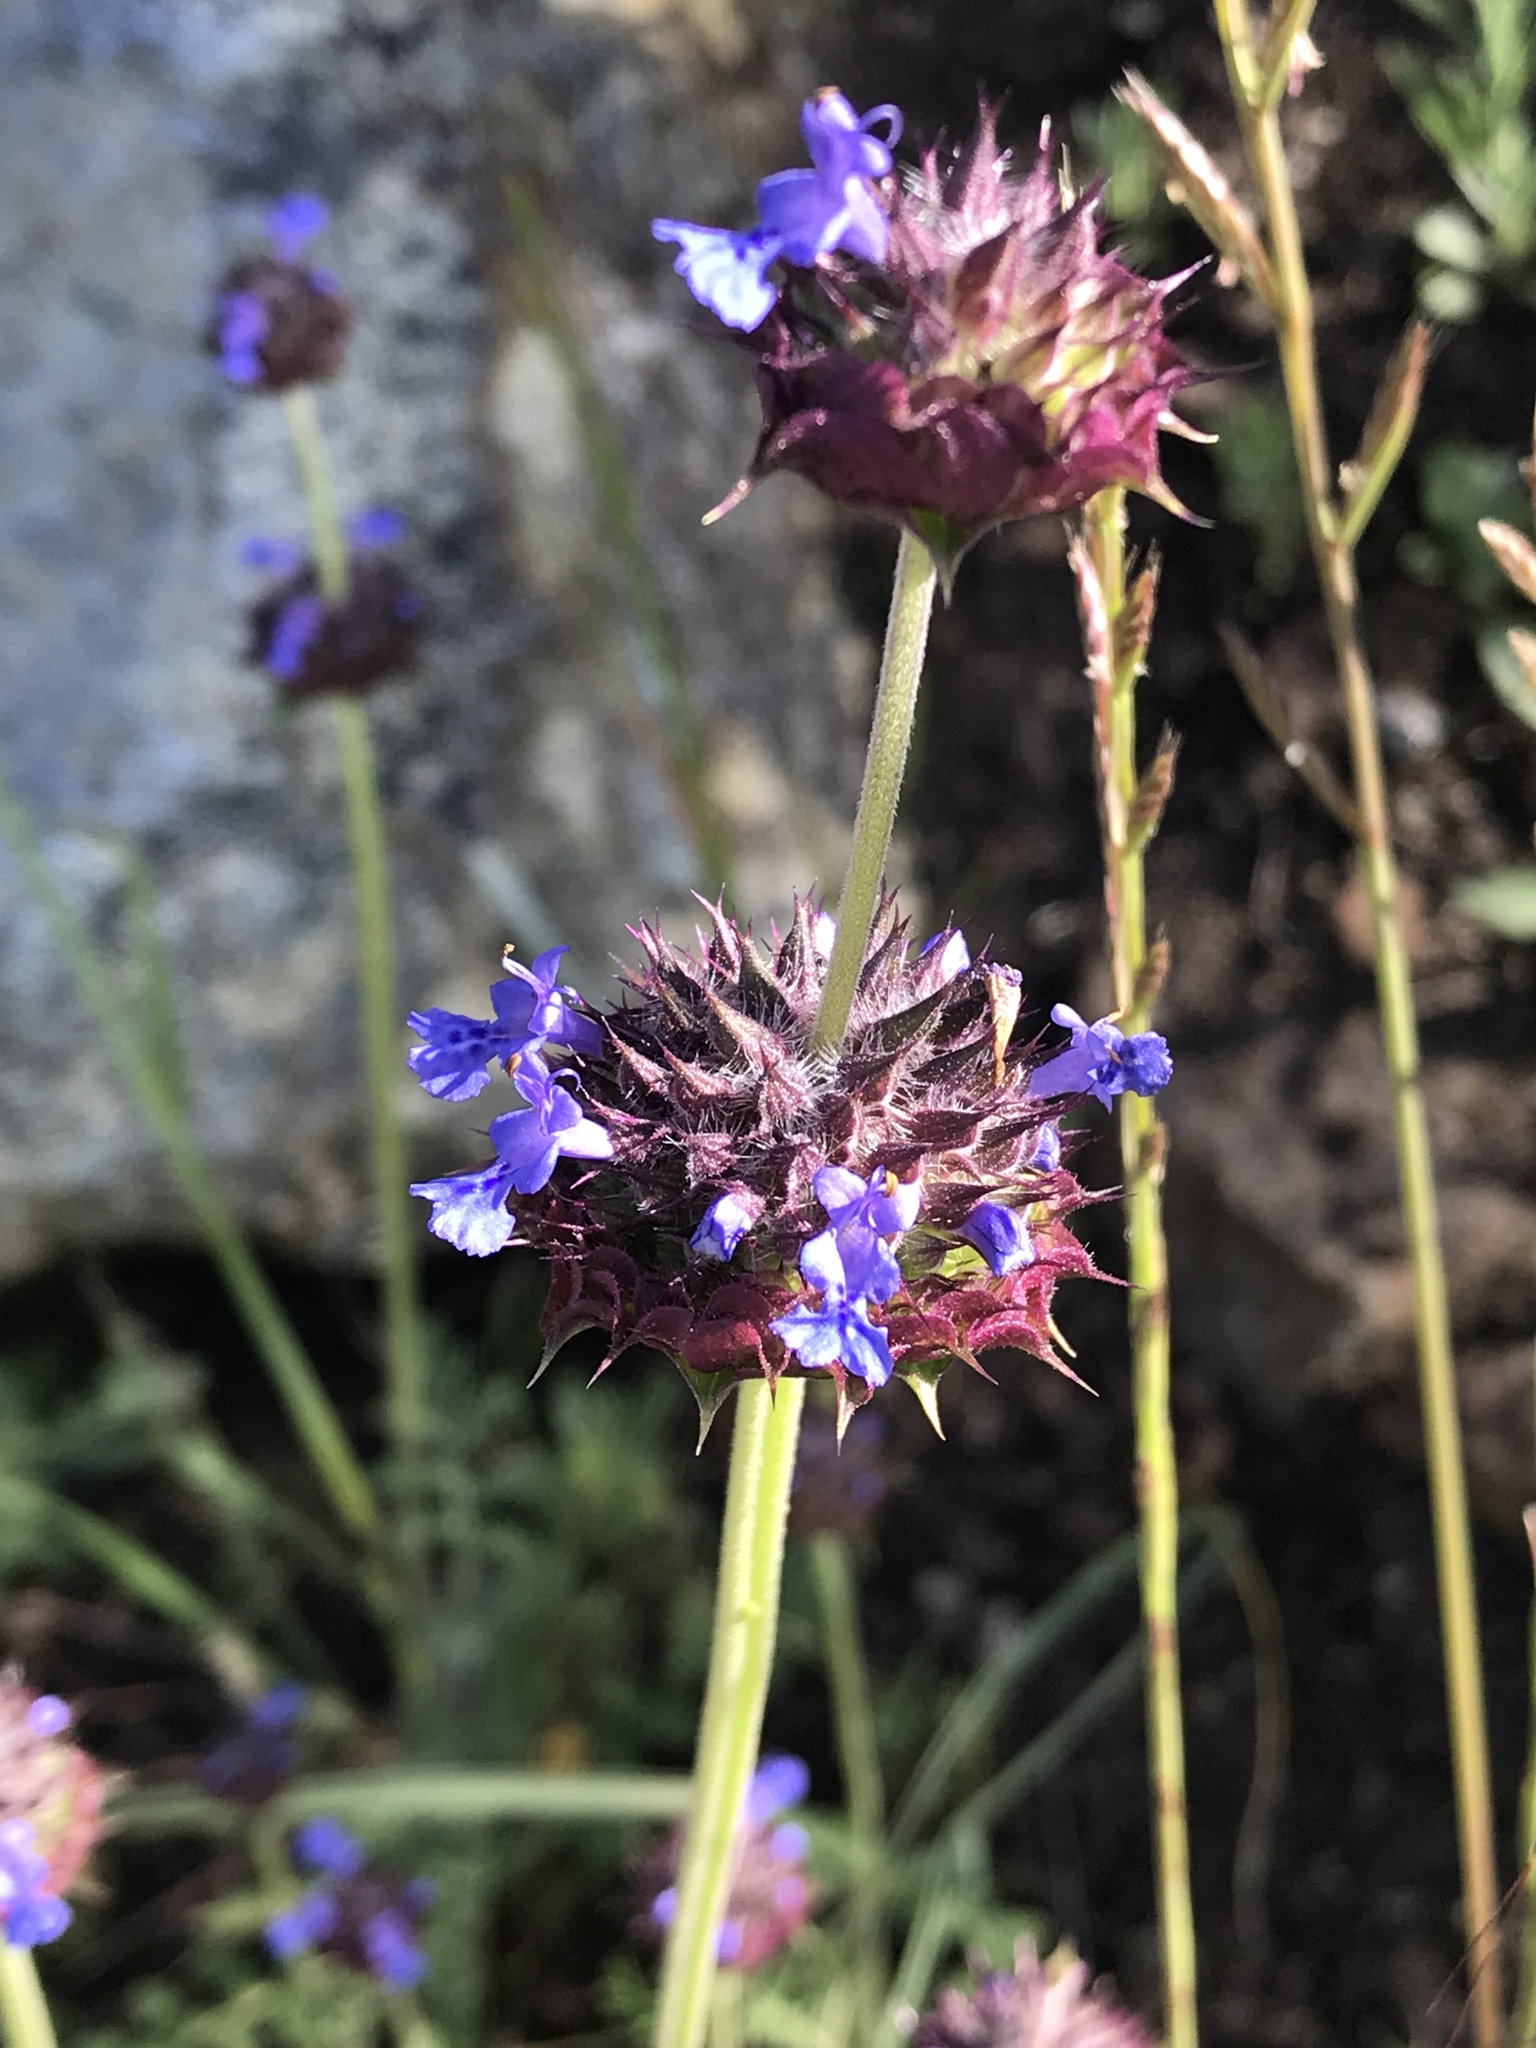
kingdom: Plantae
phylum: Tracheophyta
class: Magnoliopsida
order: Lamiales
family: Lamiaceae
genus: Salvia
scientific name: Salvia columbariae
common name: Chia
